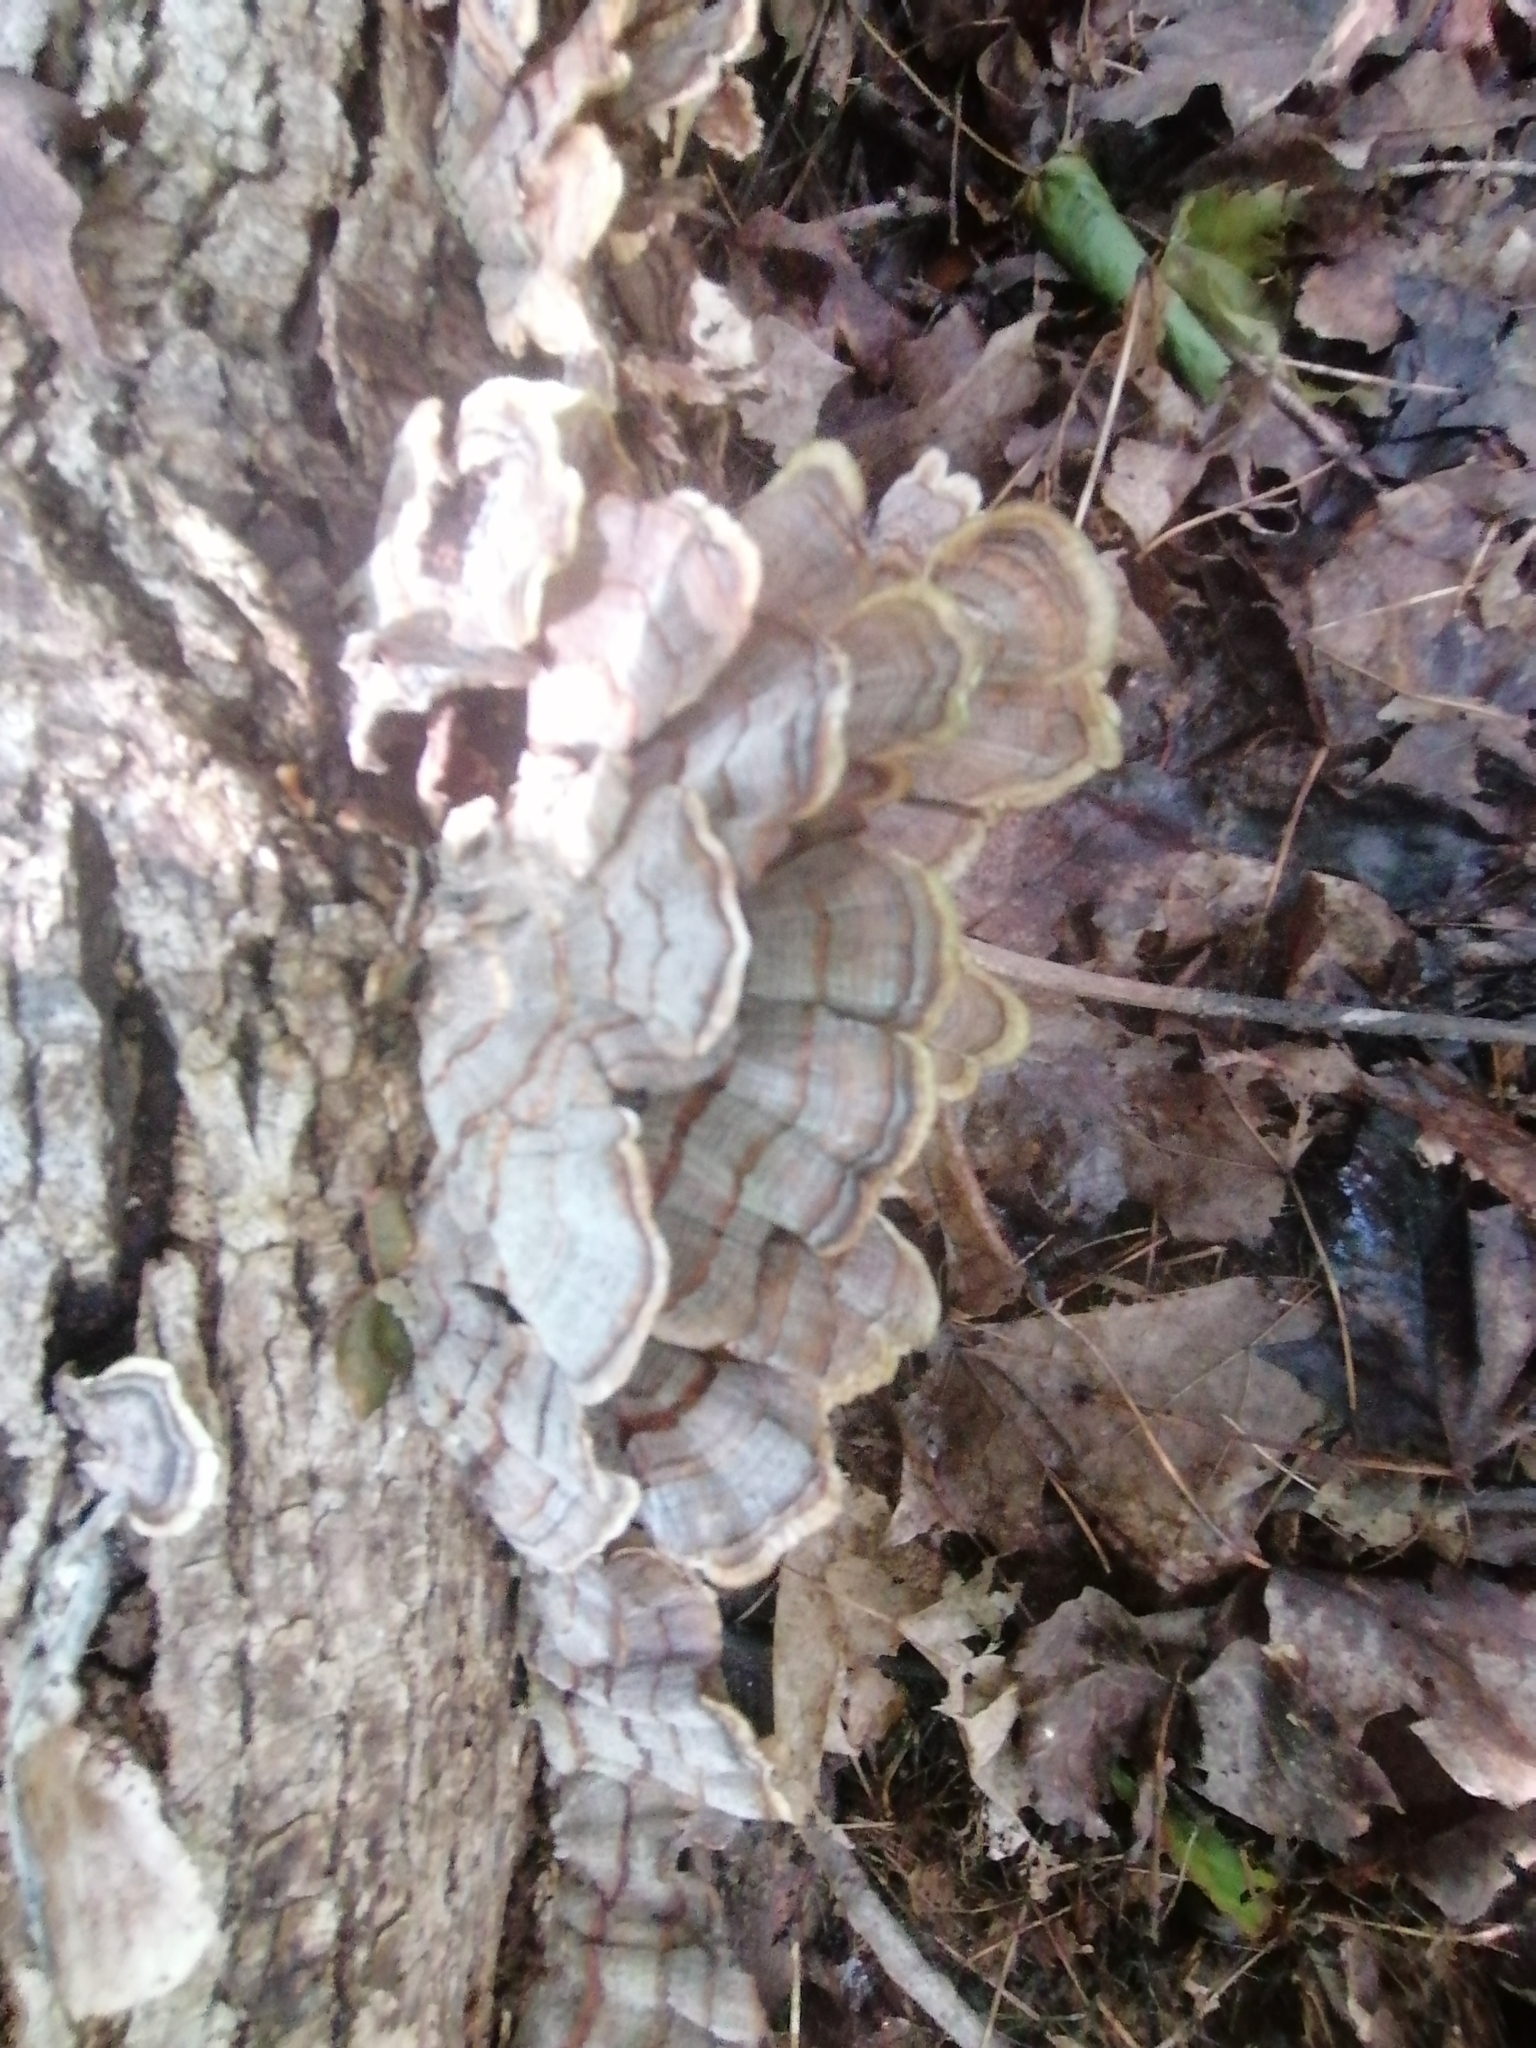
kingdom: Fungi
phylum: Basidiomycota
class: Agaricomycetes
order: Polyporales
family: Polyporaceae
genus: Trametes
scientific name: Trametes versicolor
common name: Turkeytail
